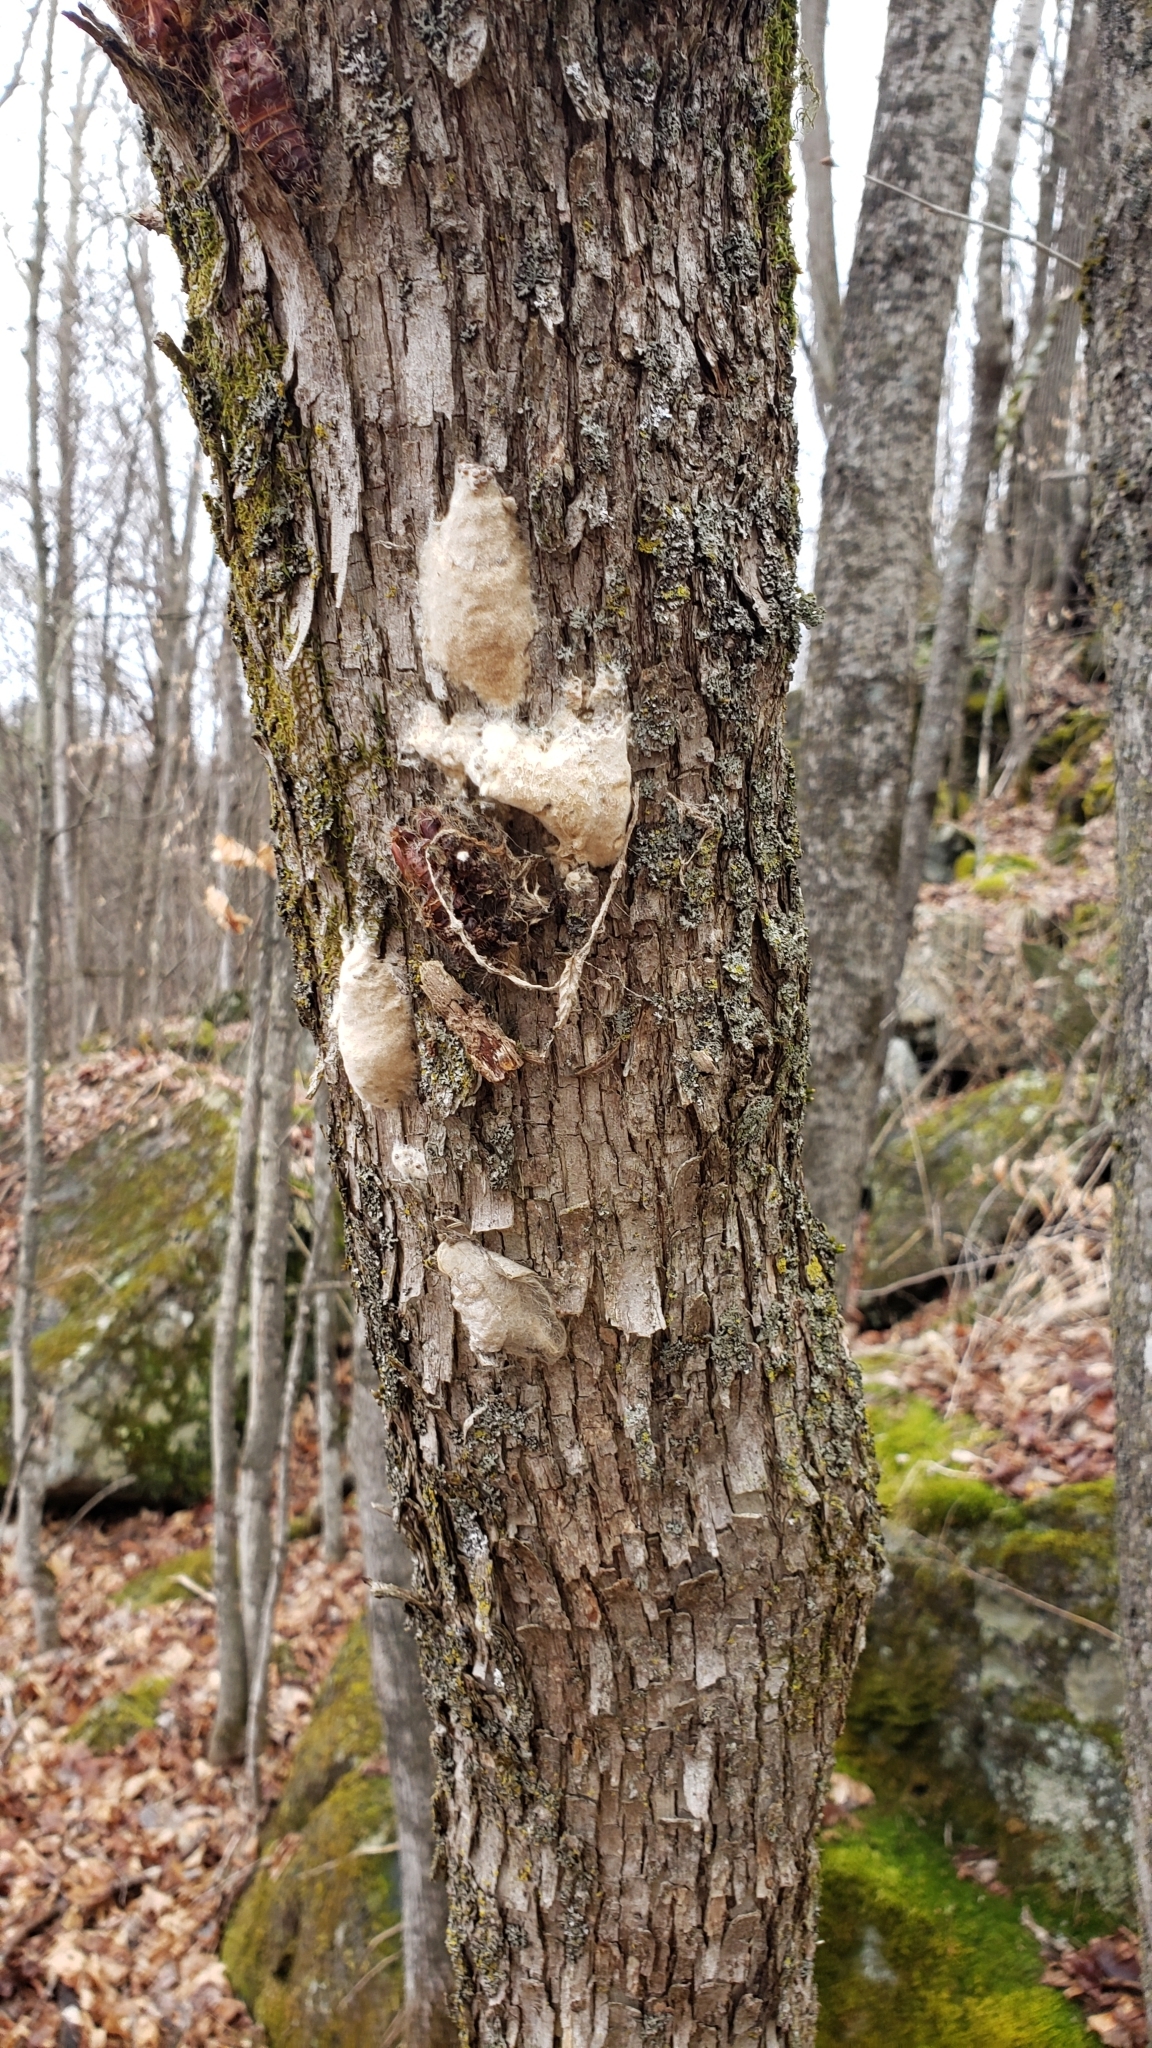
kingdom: Animalia
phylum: Arthropoda
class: Insecta
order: Lepidoptera
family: Erebidae
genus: Lymantria
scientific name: Lymantria dispar
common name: Gypsy moth
